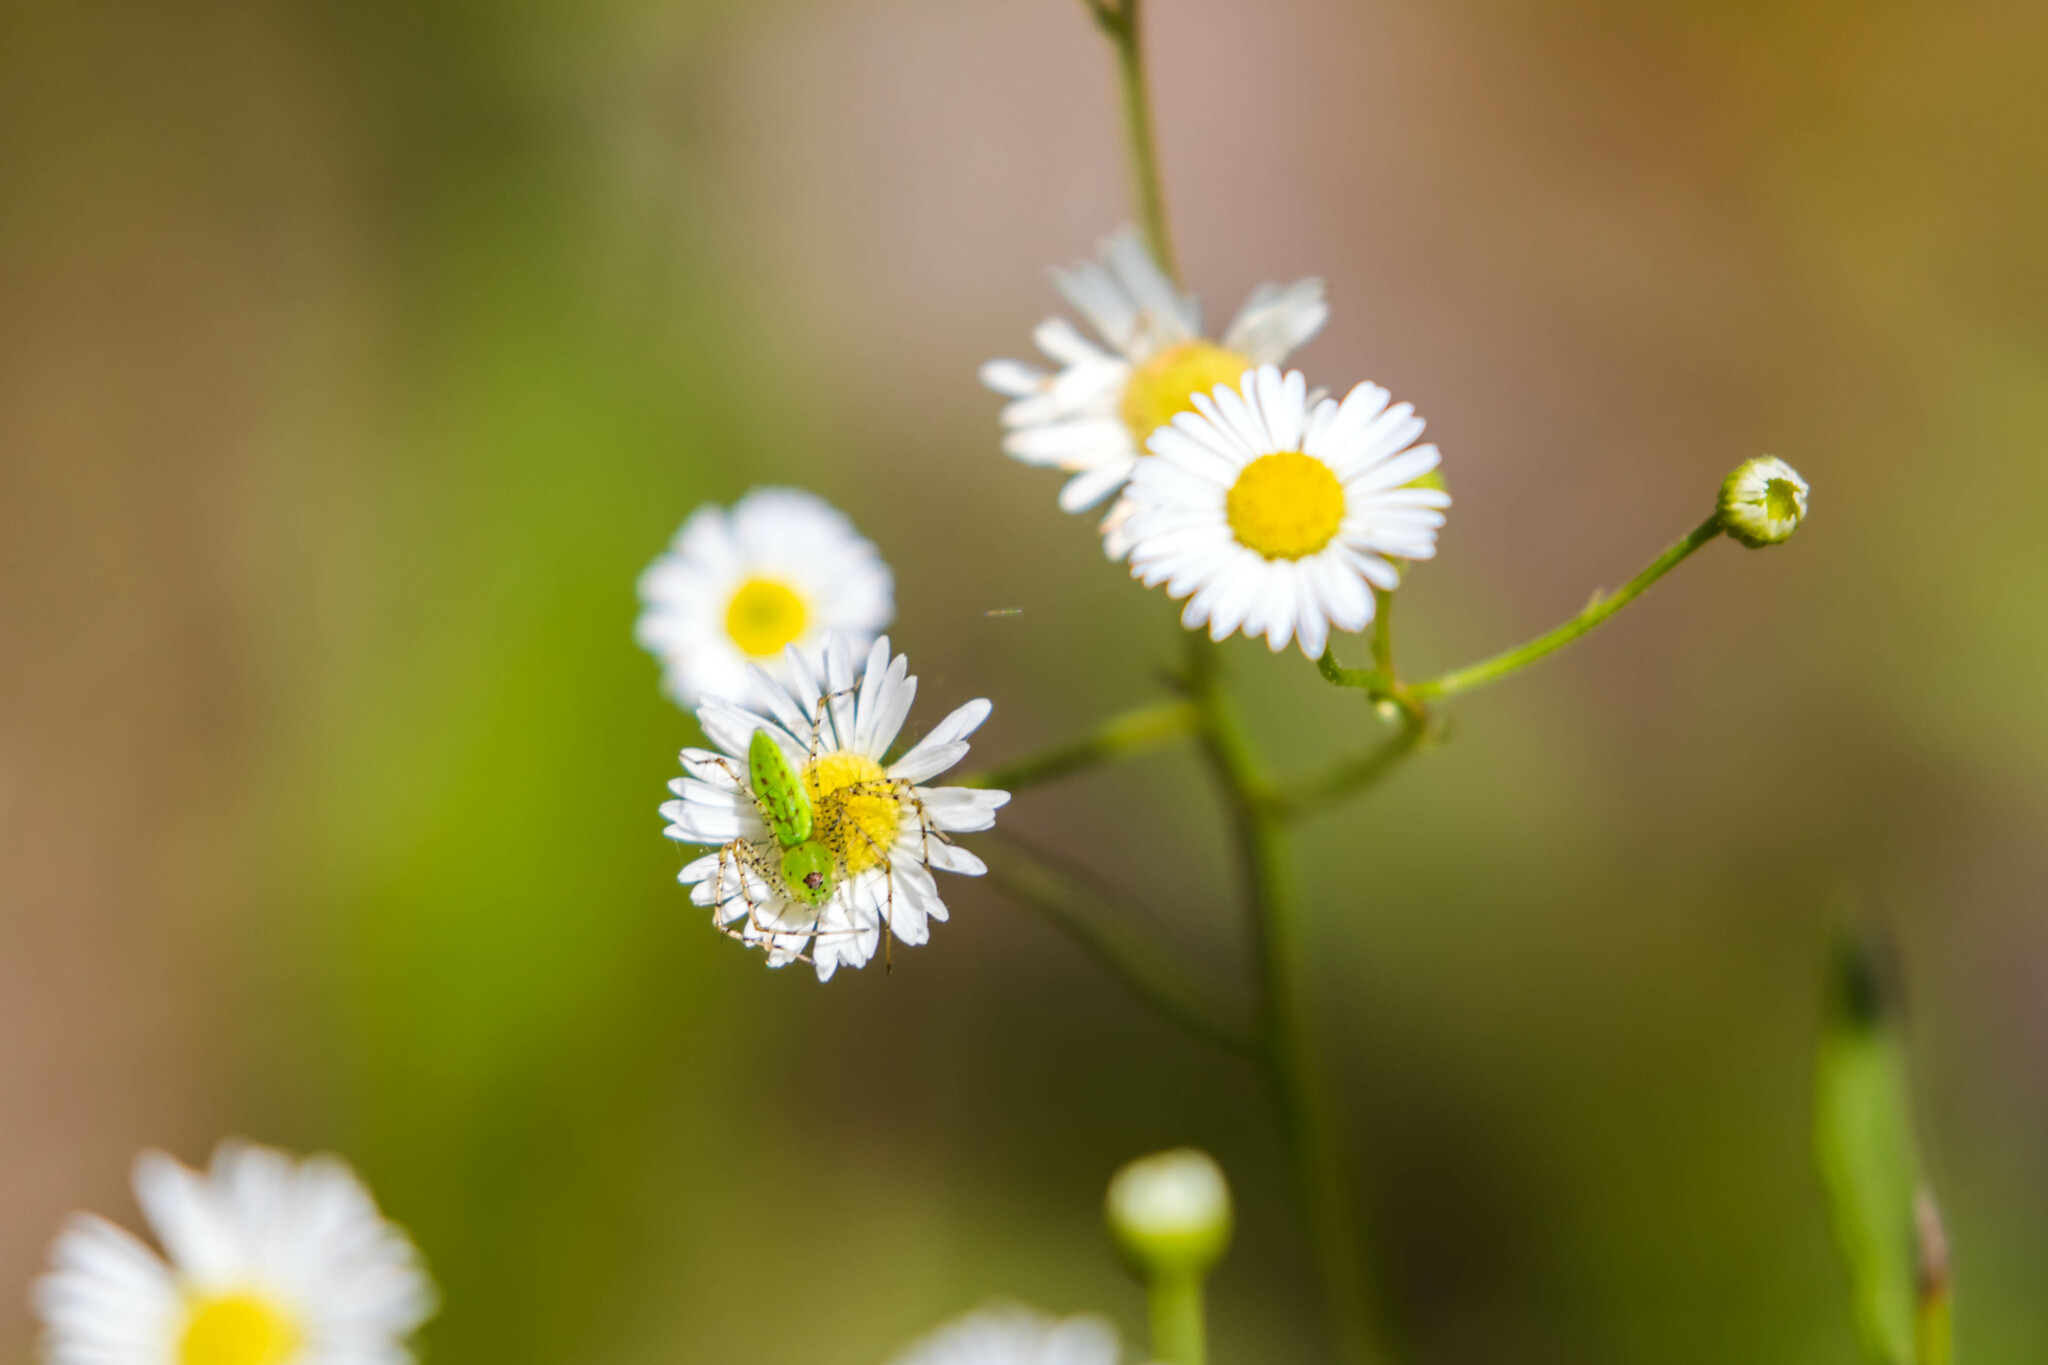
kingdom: Animalia
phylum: Arthropoda
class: Arachnida
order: Araneae
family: Oxyopidae
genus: Peucetia
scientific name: Peucetia viridans
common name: Lynx spiders
